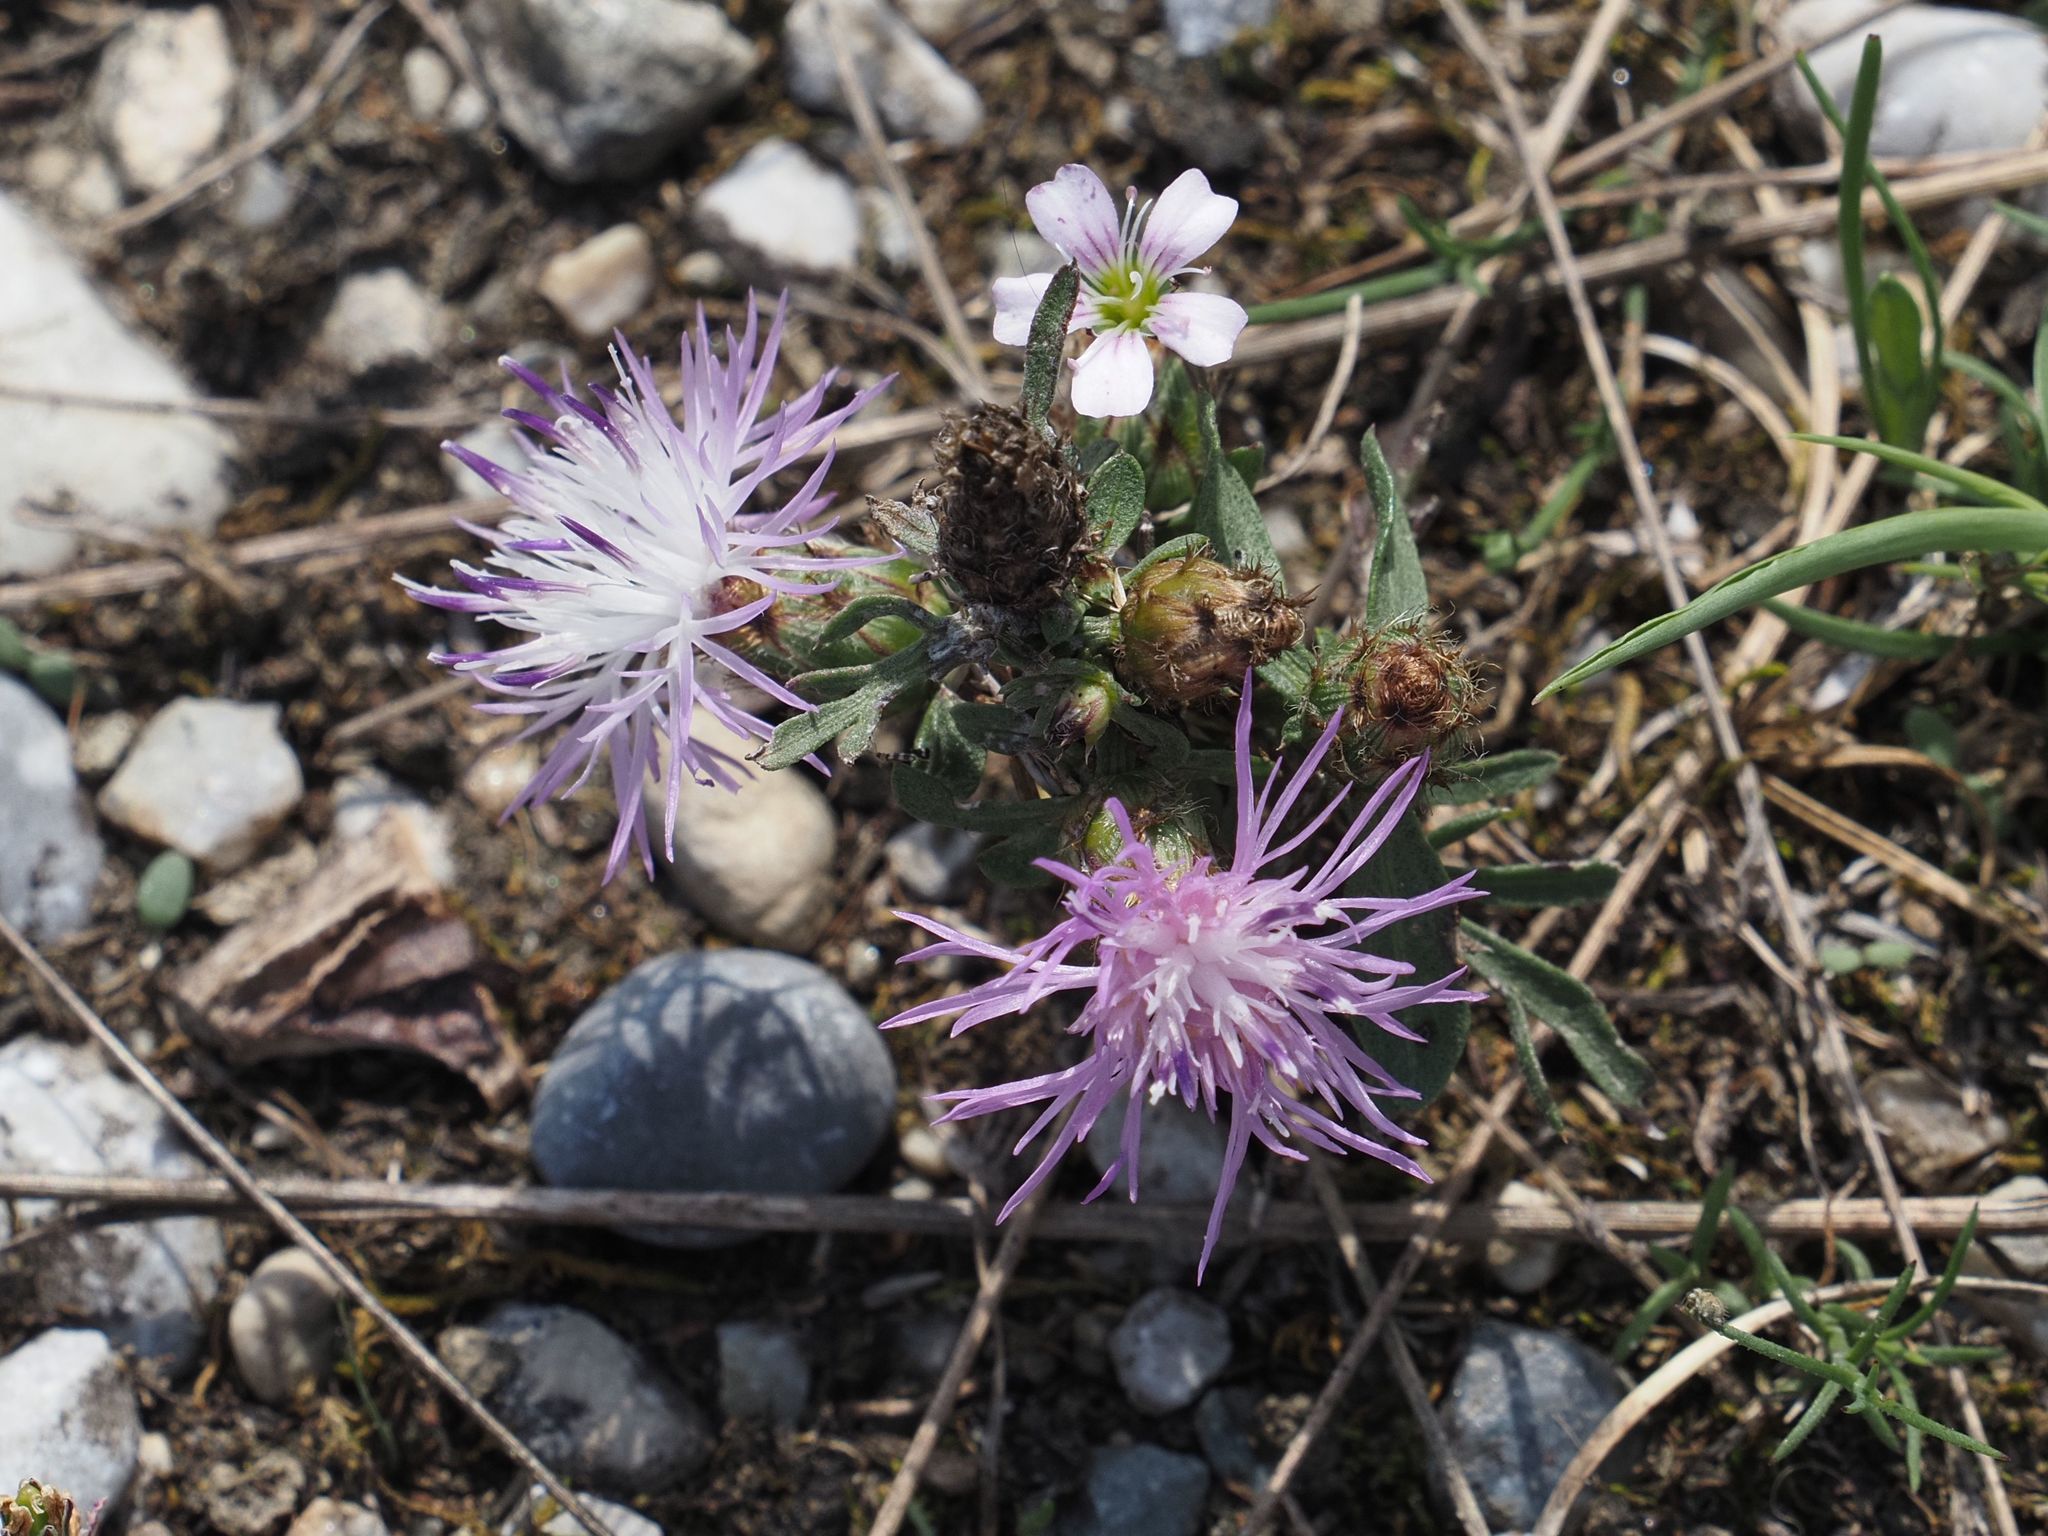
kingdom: Plantae
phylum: Tracheophyta
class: Magnoliopsida
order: Asterales
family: Asteraceae
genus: Centaurea
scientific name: Centaurea stoebe
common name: Spotted knapweed
